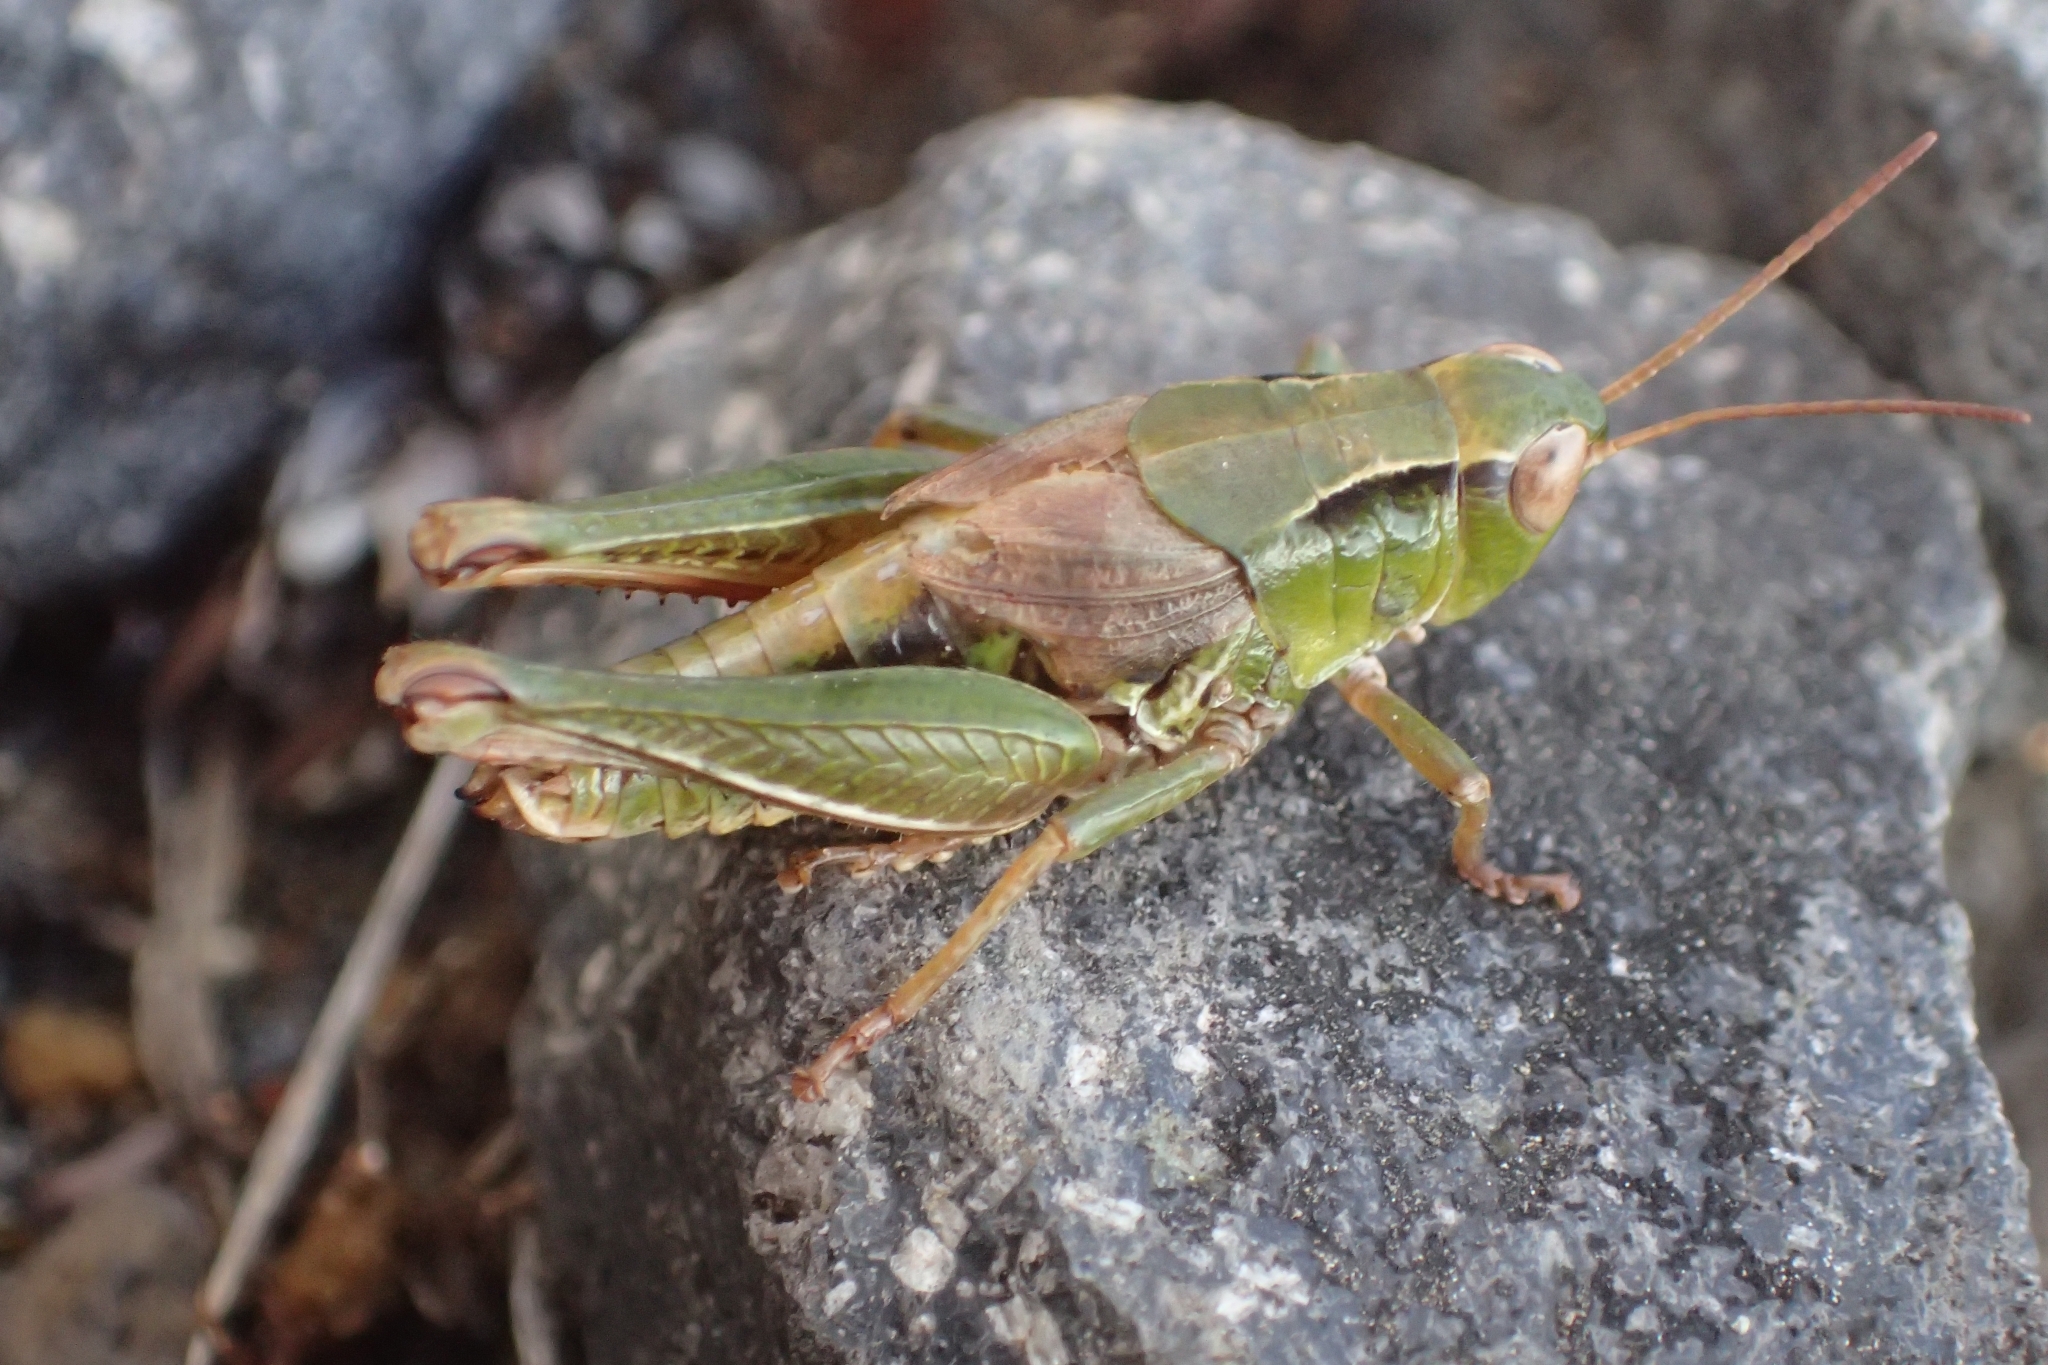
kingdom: Animalia
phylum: Arthropoda
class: Insecta
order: Orthoptera
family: Acrididae
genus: Phaulacridium
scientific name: Phaulacridium marginale
